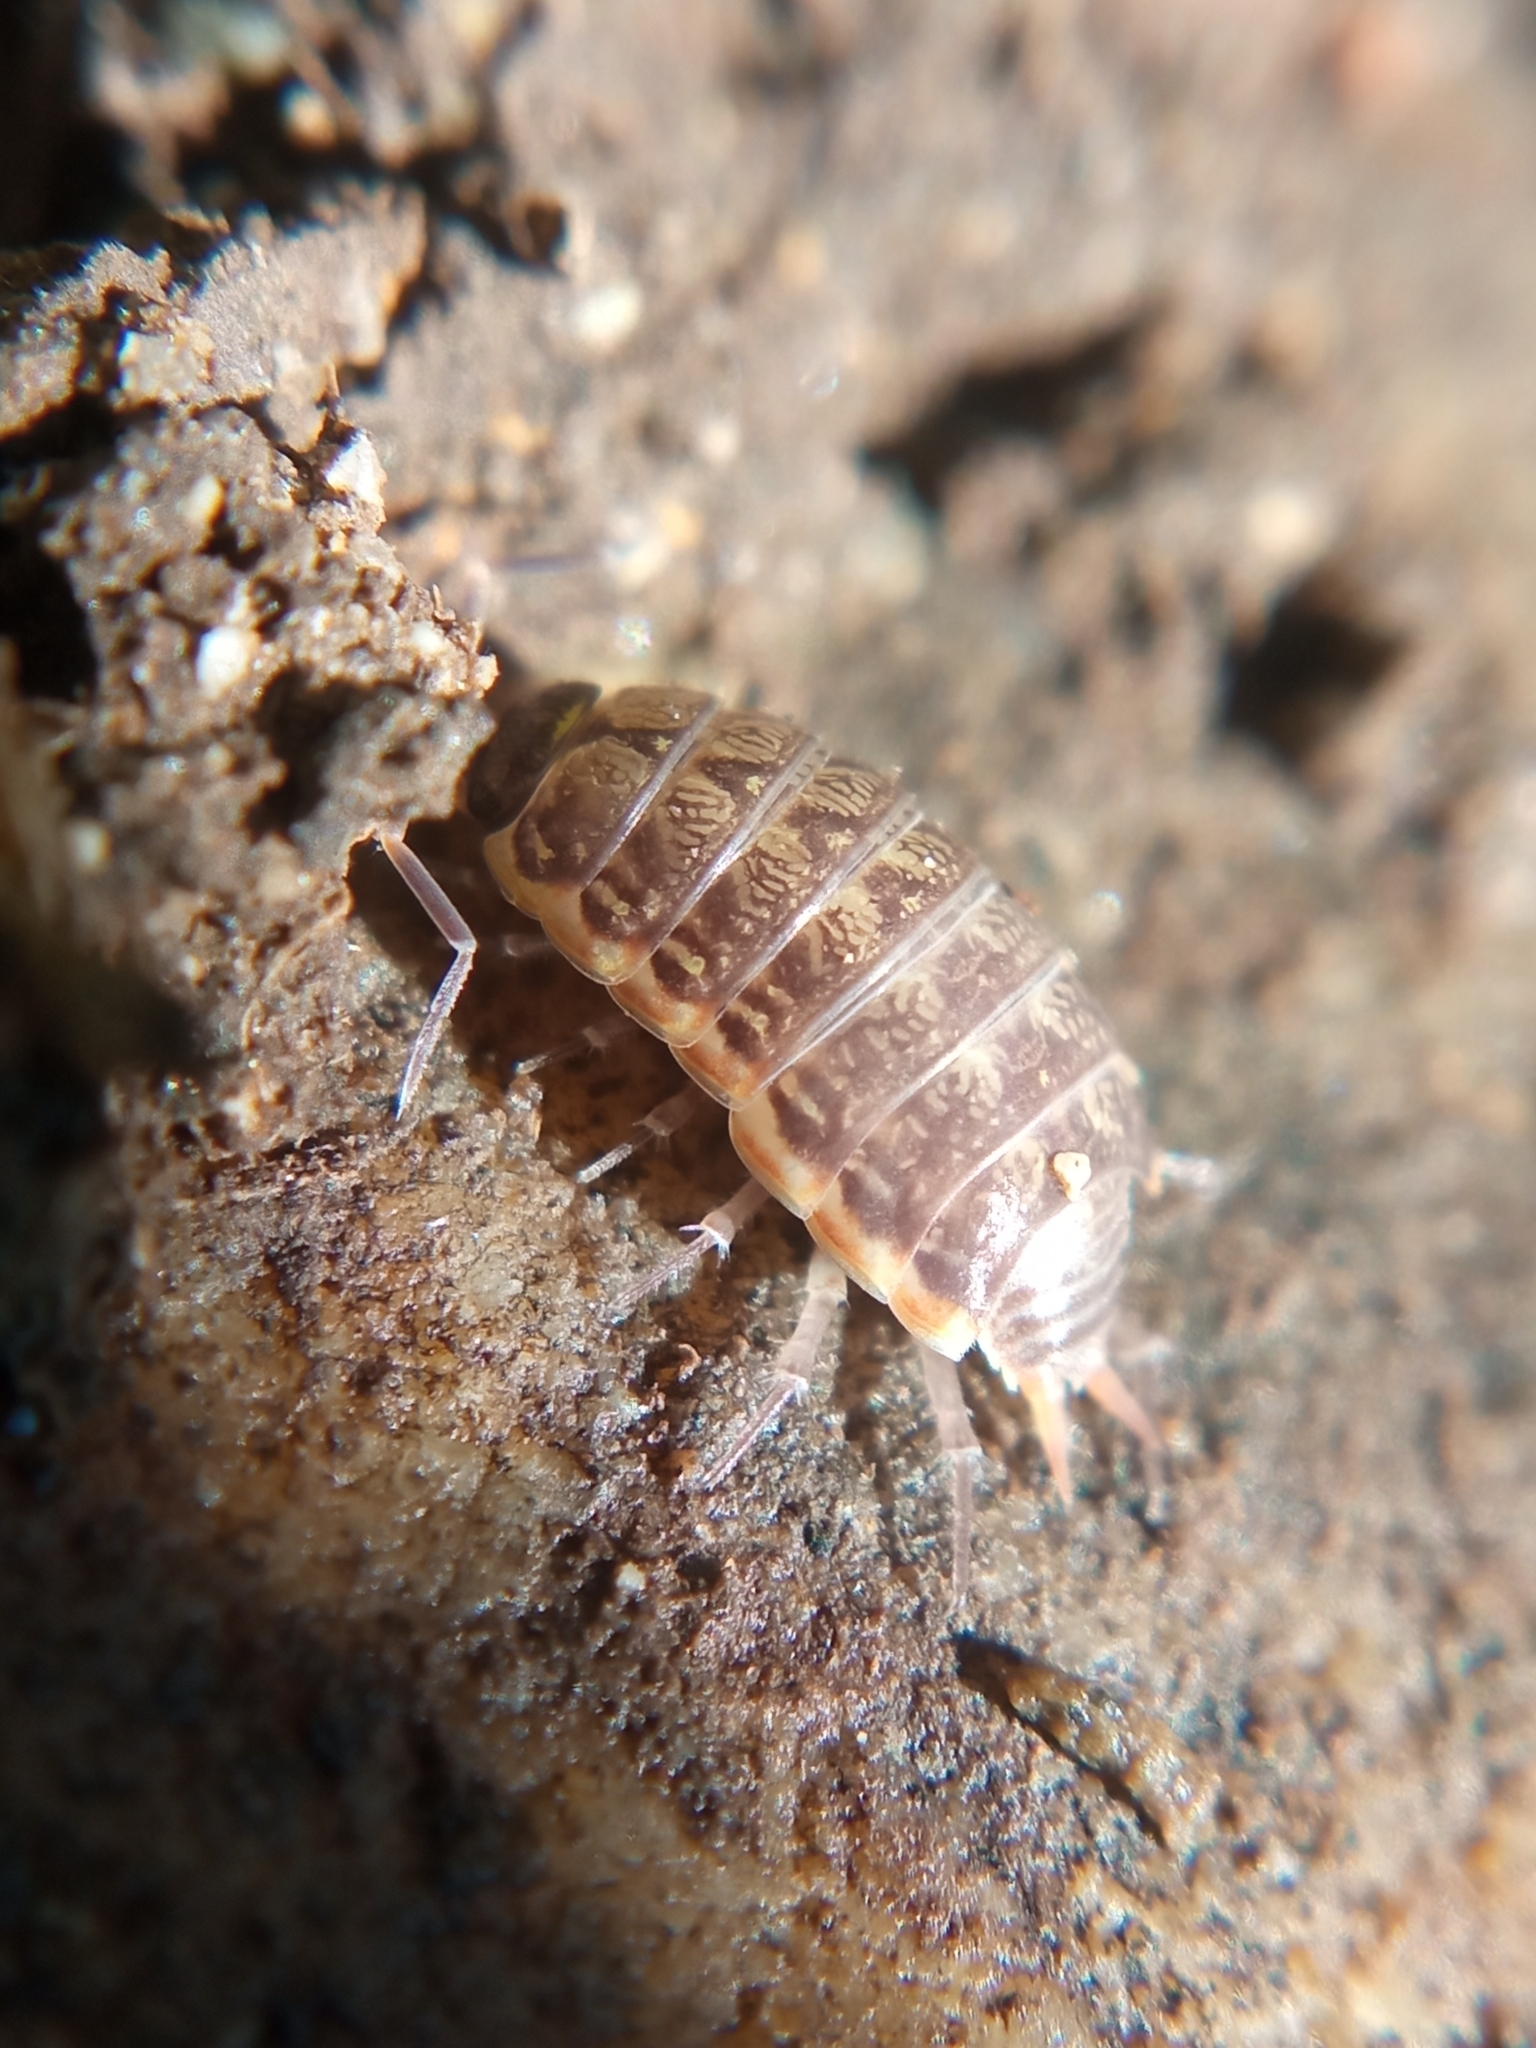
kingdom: Animalia
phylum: Arthropoda
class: Malacostraca
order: Isopoda
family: Philosciidae
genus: Philoscia
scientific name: Philoscia muscorum
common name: Common striped woodlouse
